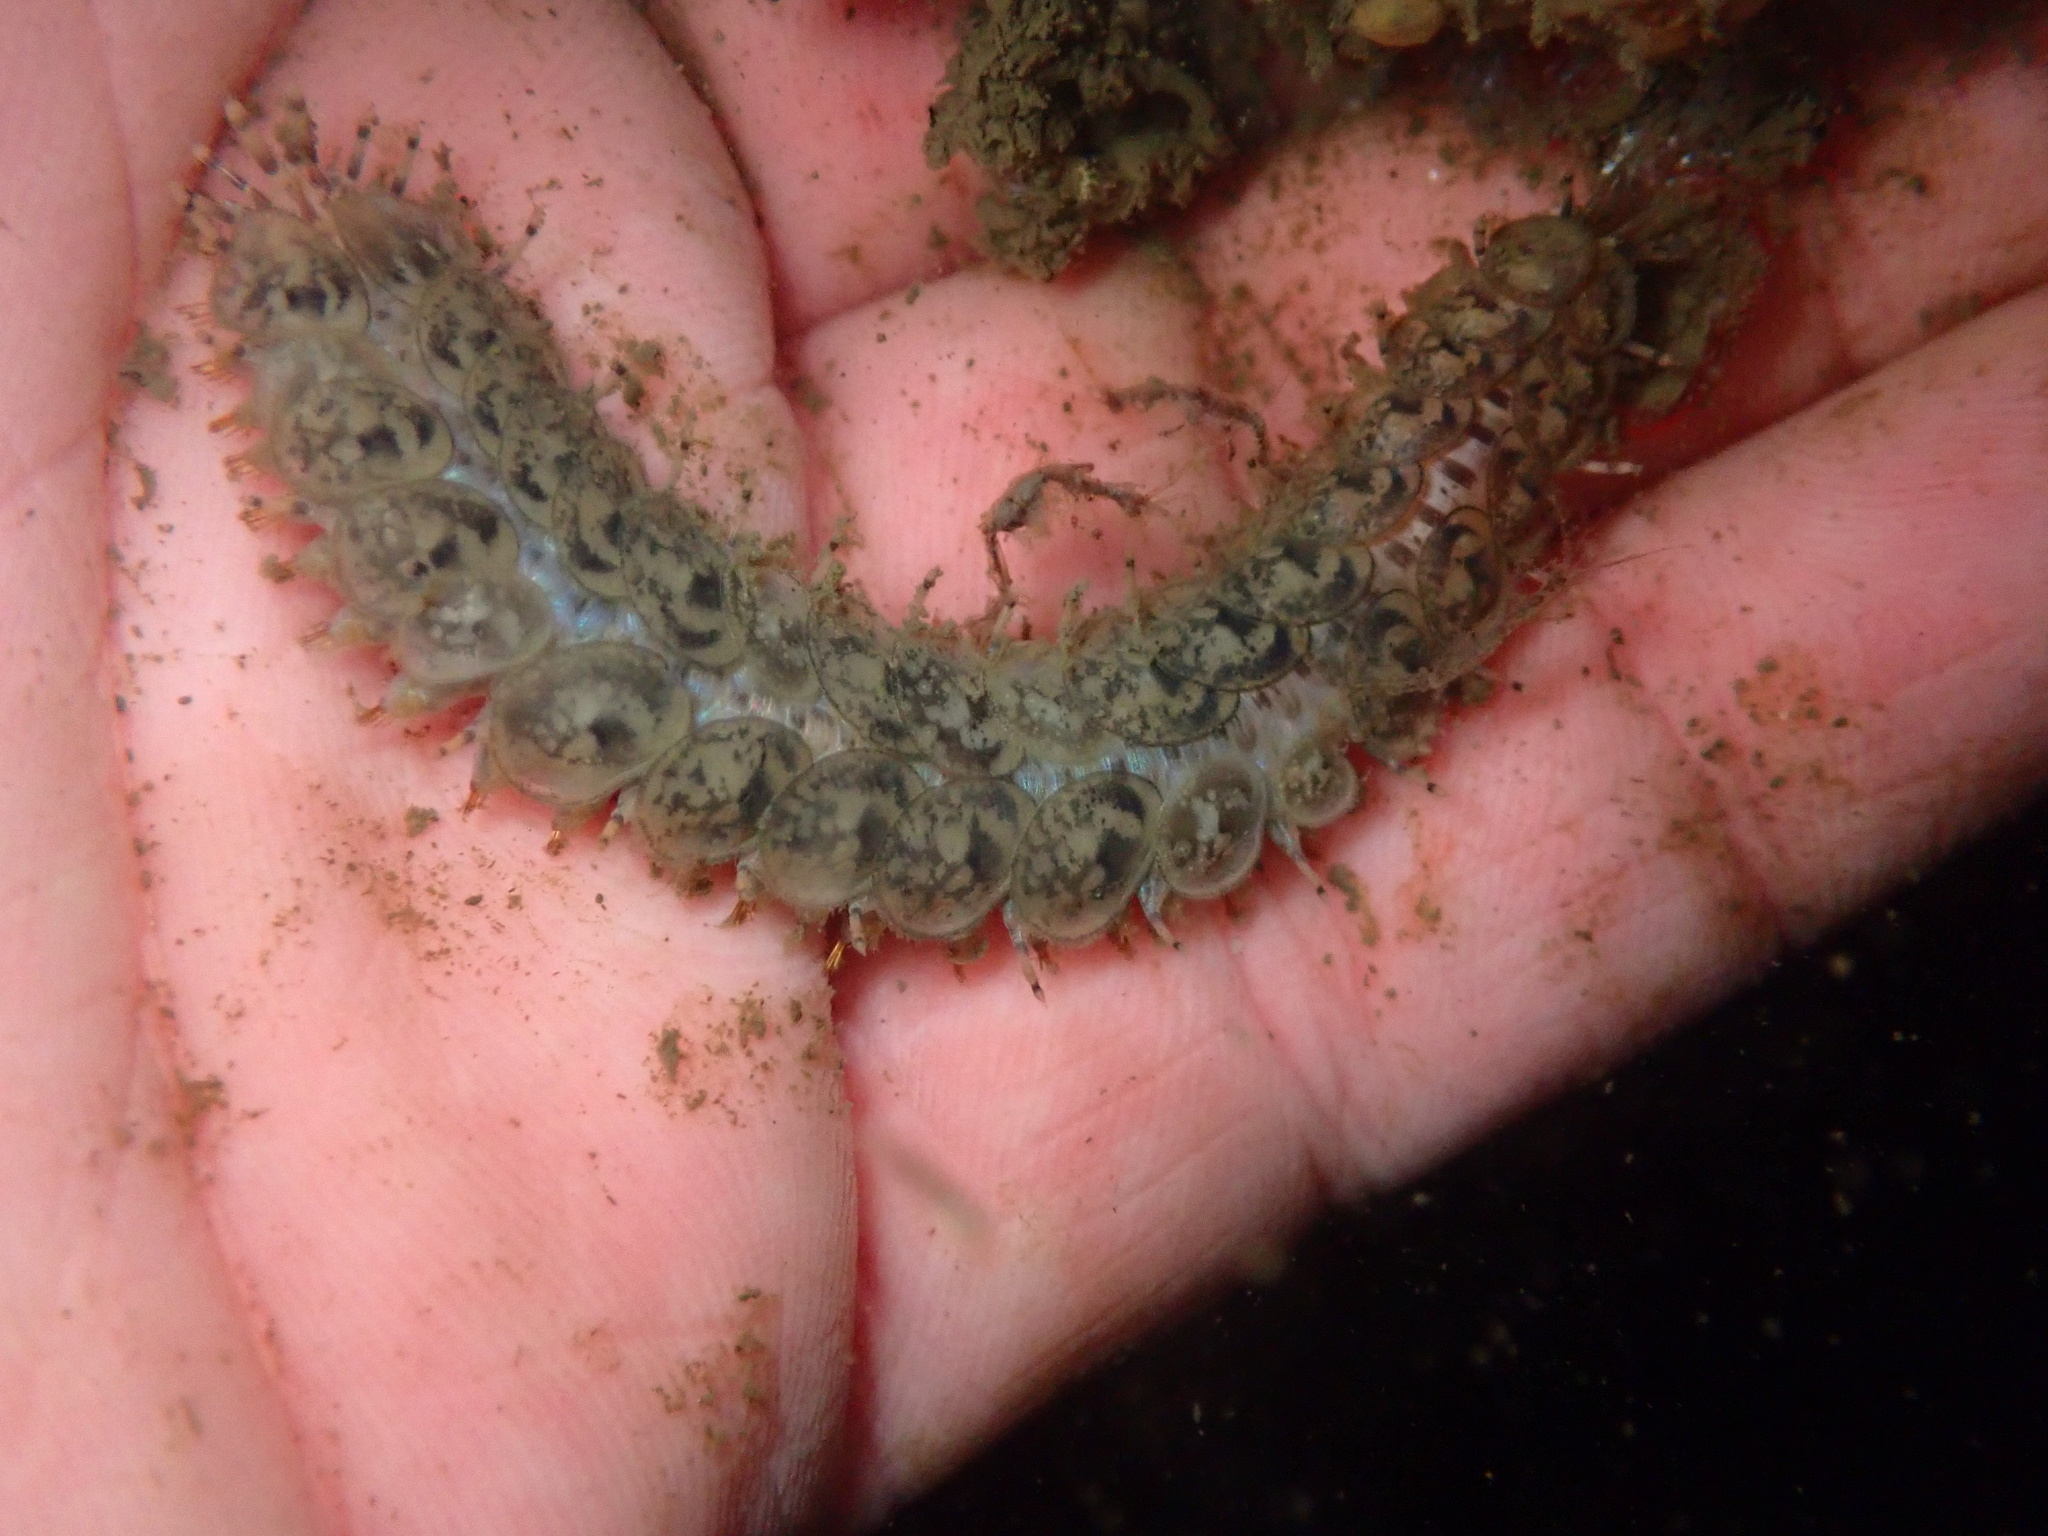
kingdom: Animalia
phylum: Annelida
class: Polychaeta
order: Phyllodocida
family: Polynoidae
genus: Halosydna
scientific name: Halosydna brevisetosa
